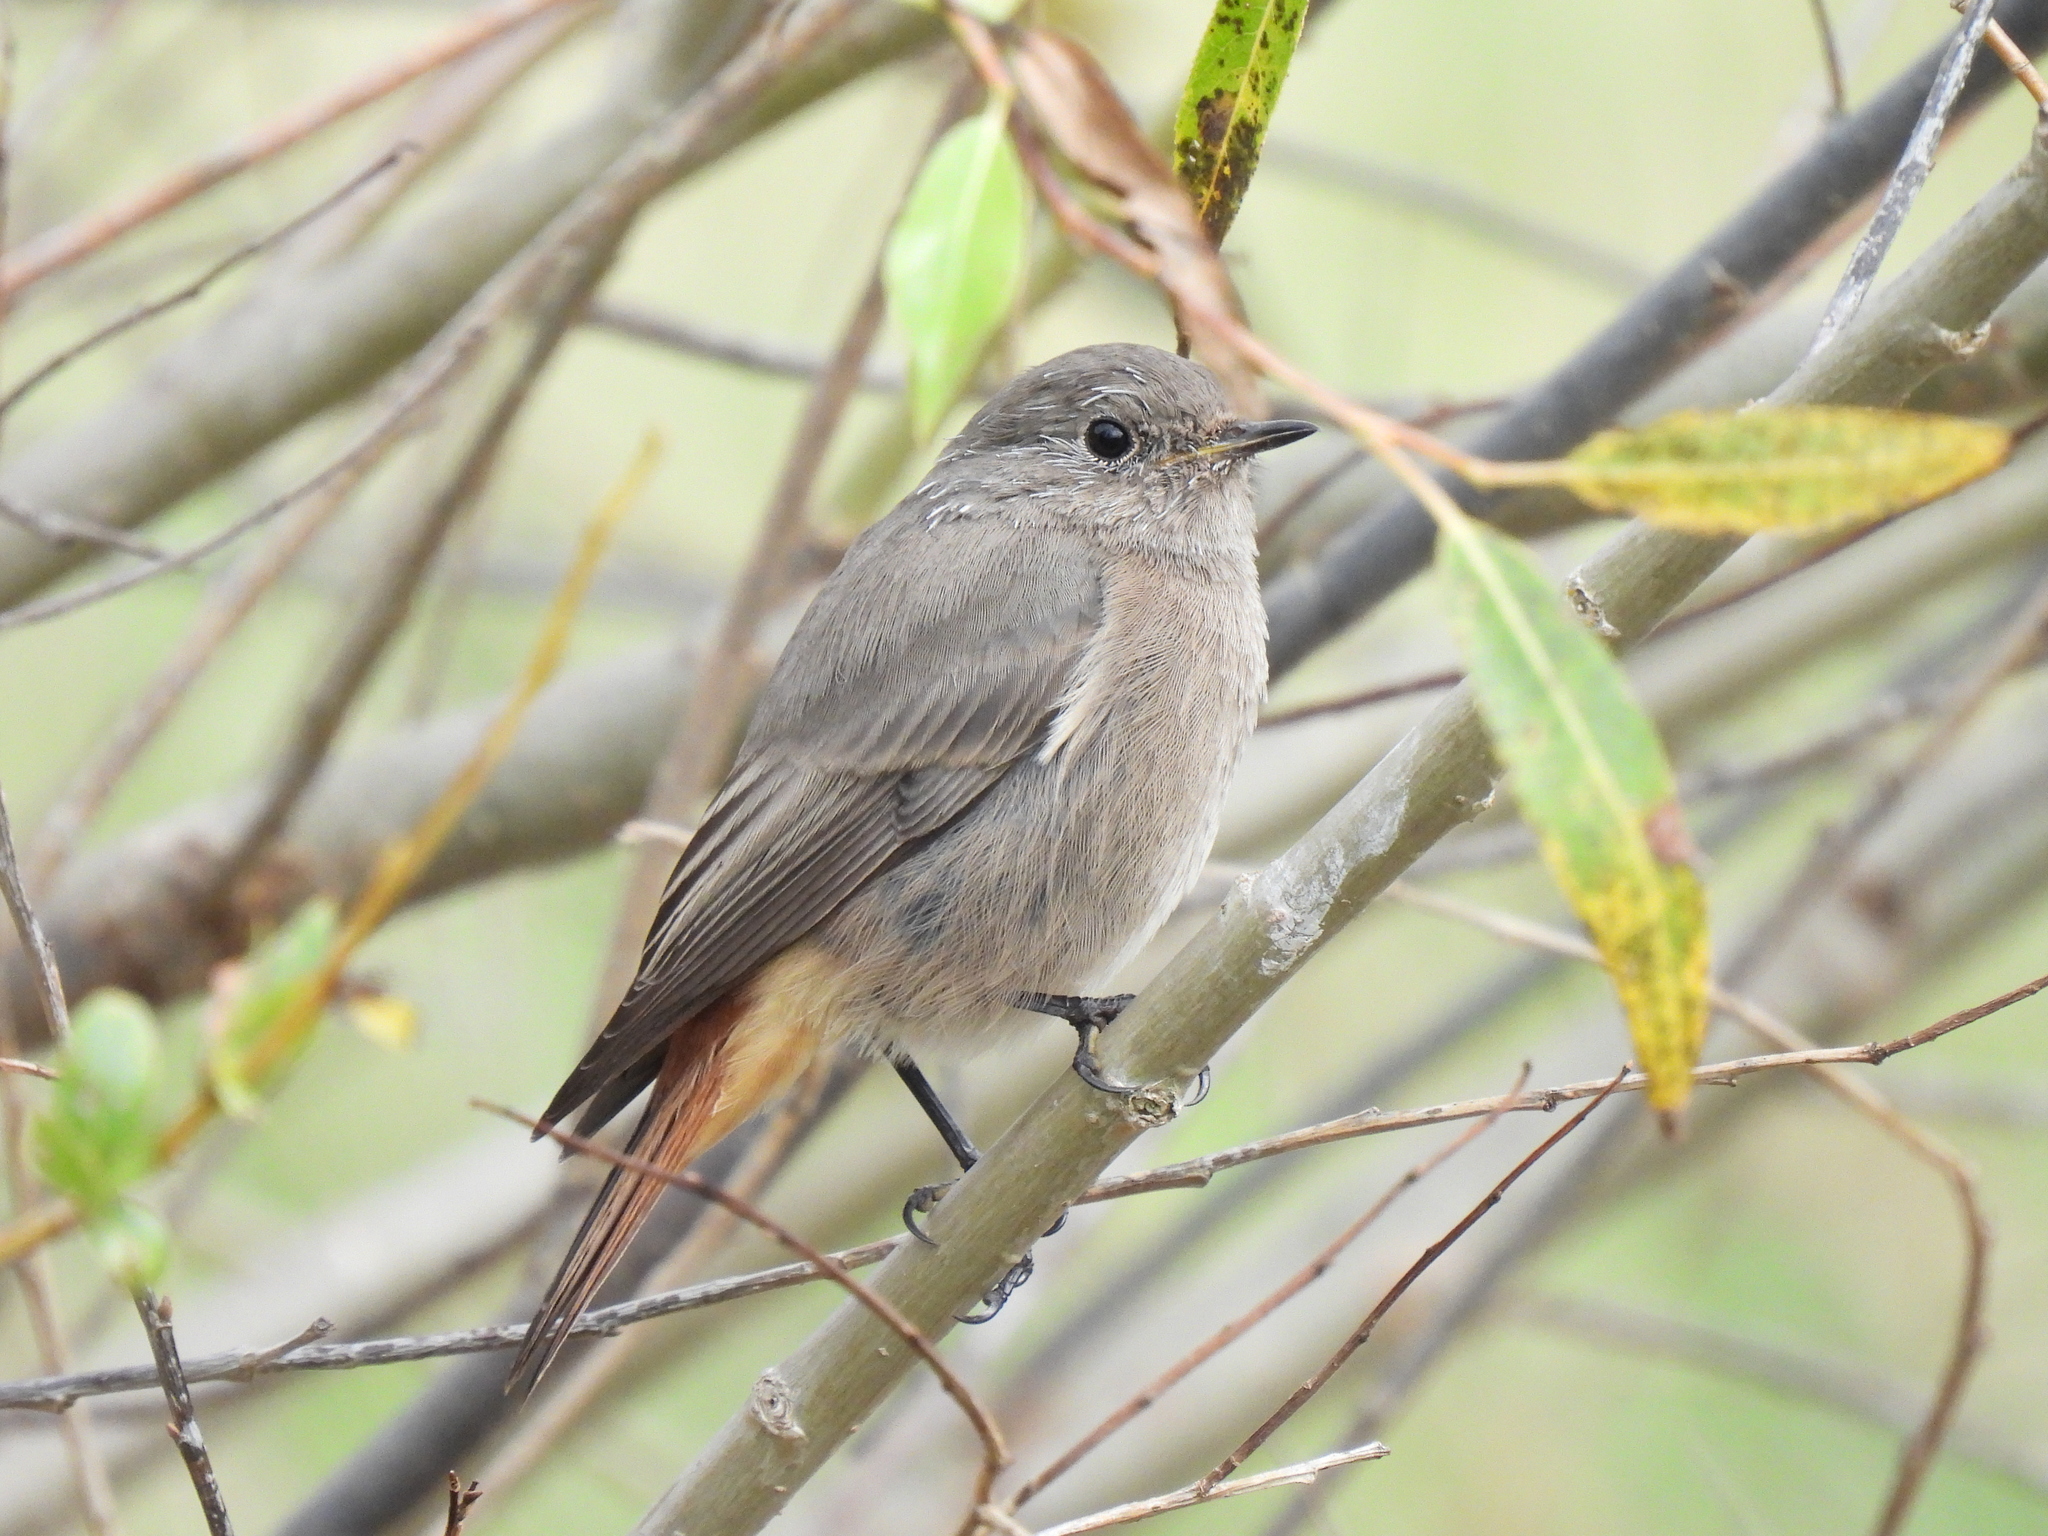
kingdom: Animalia
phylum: Chordata
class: Aves
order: Passeriformes
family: Muscicapidae
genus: Phoenicurus
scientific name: Phoenicurus ochruros
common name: Black redstart
